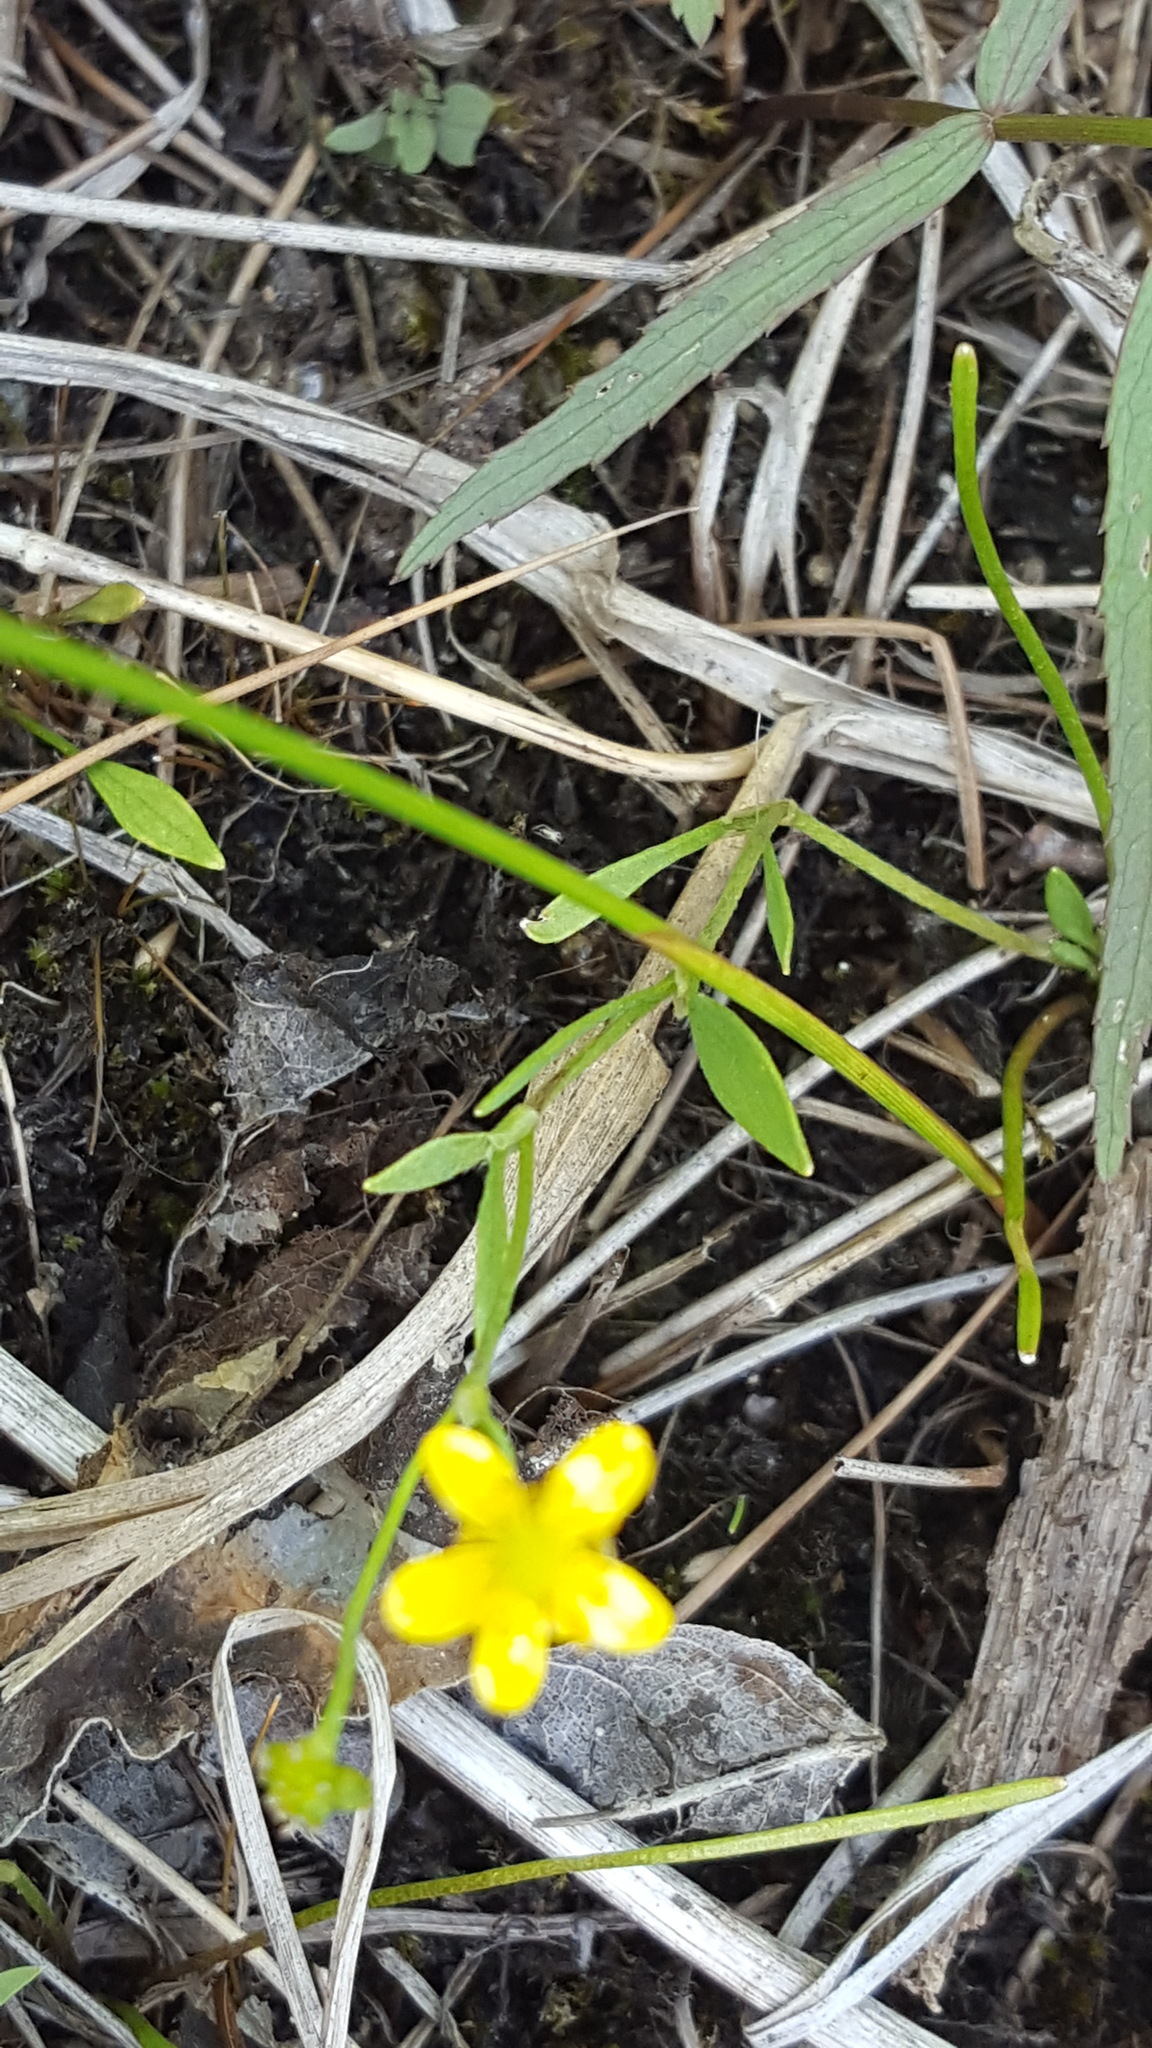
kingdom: Plantae
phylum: Tracheophyta
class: Magnoliopsida
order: Ranunculales
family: Ranunculaceae
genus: Ranunculus
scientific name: Ranunculus flammula
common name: Lesser spearwort
